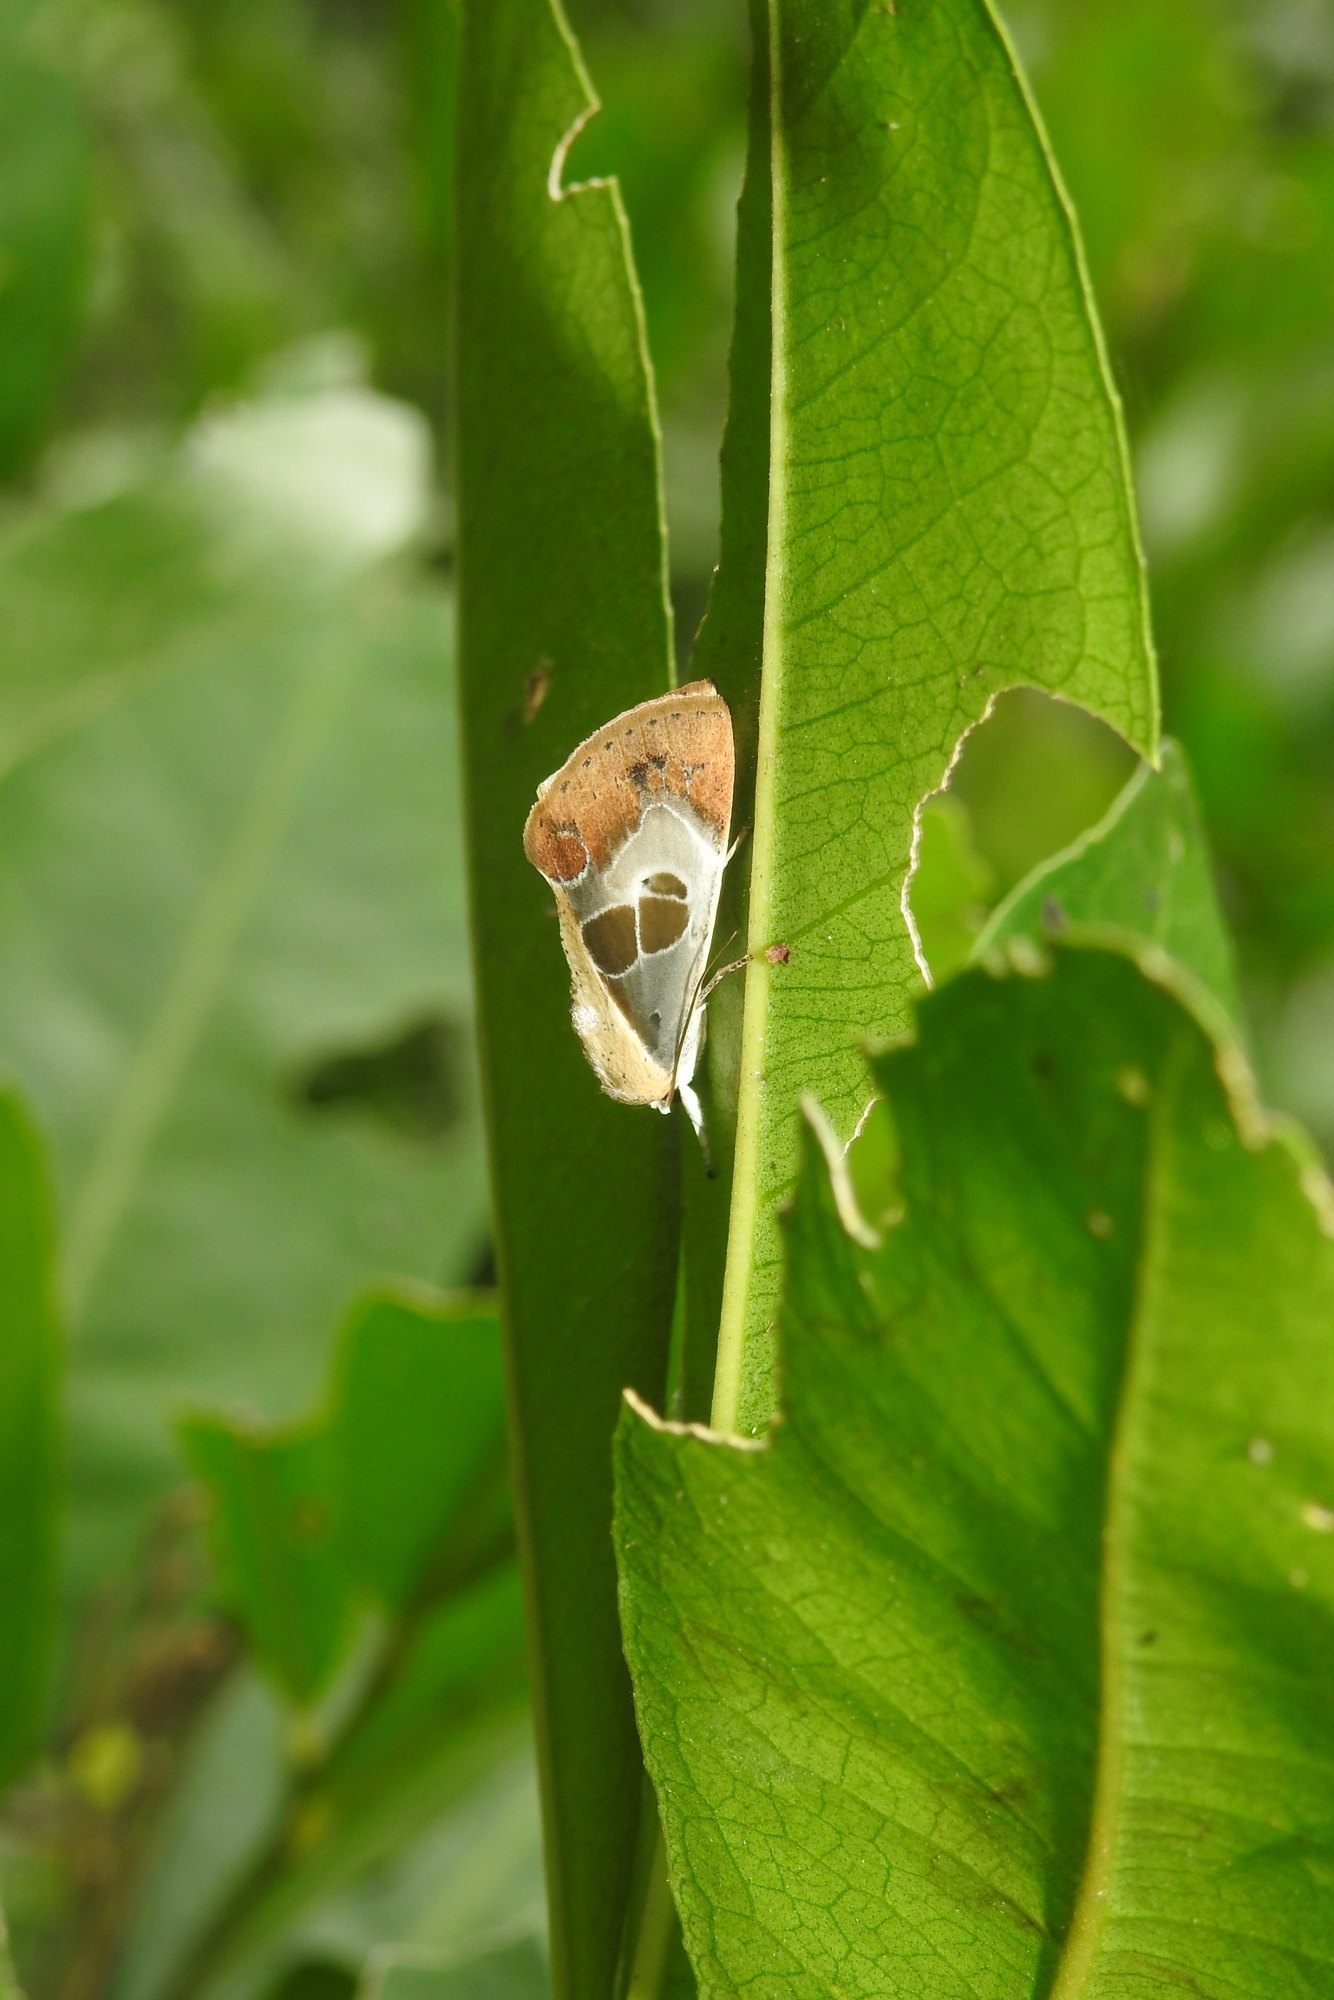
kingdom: Animalia
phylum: Arthropoda
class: Insecta
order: Lepidoptera
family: Nolidae
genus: Westermannia
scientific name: Westermannia superba
